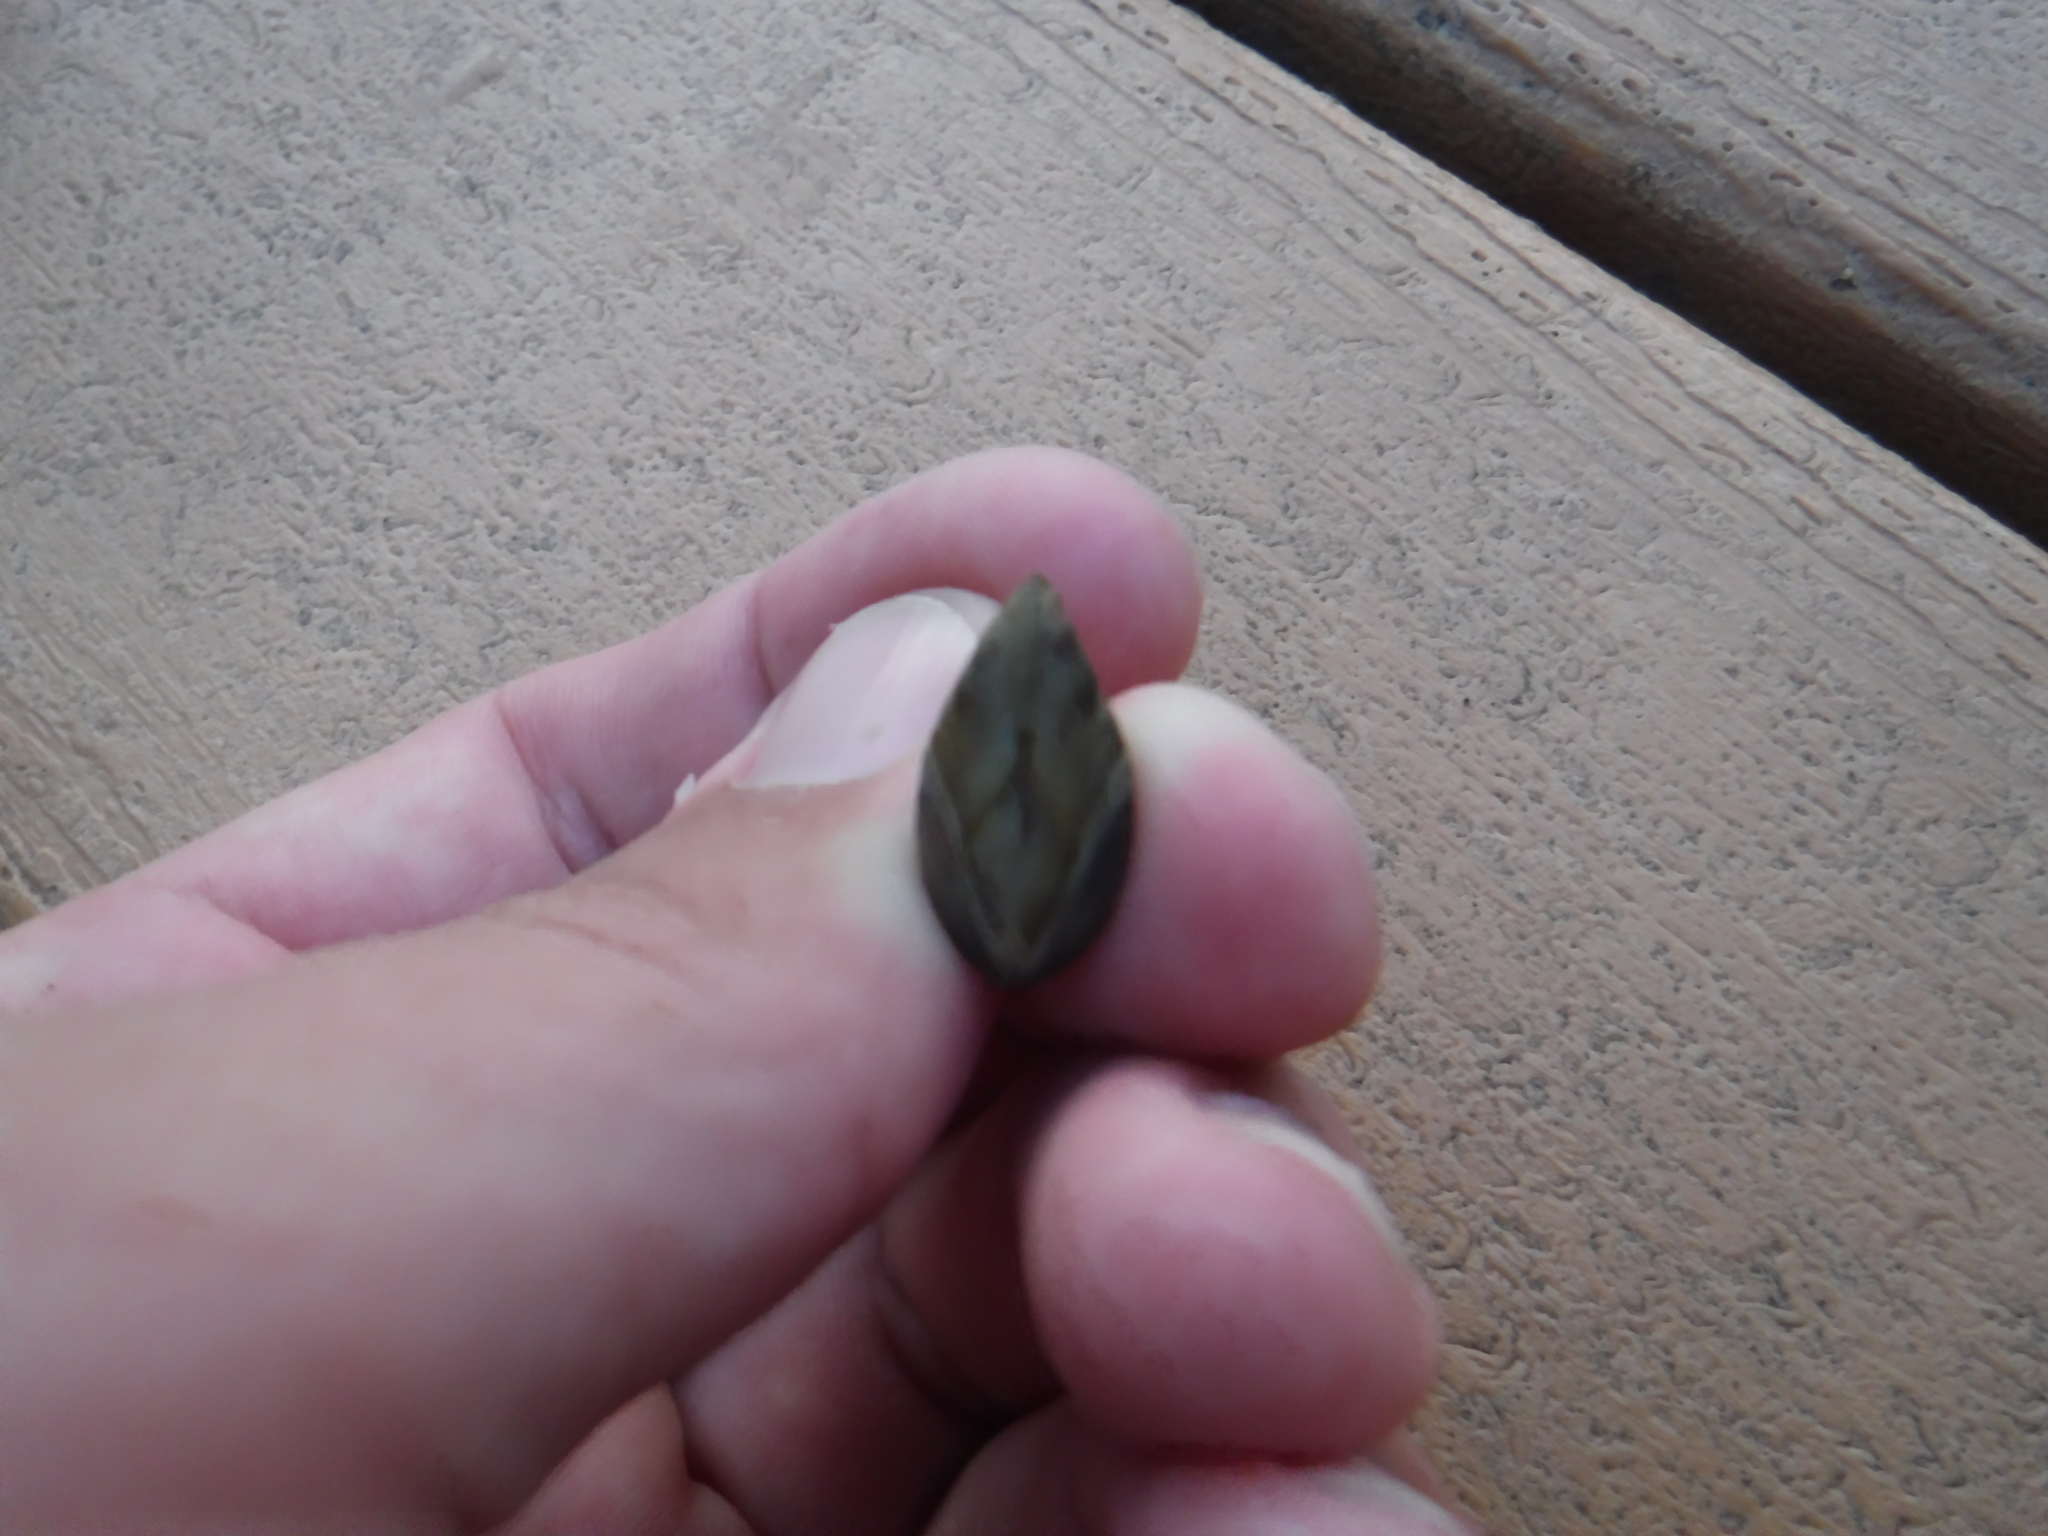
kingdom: Animalia
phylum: Mollusca
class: Bivalvia
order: Myida
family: Dreissenidae
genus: Dreissena
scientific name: Dreissena polymorpha
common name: Zebra mussel
